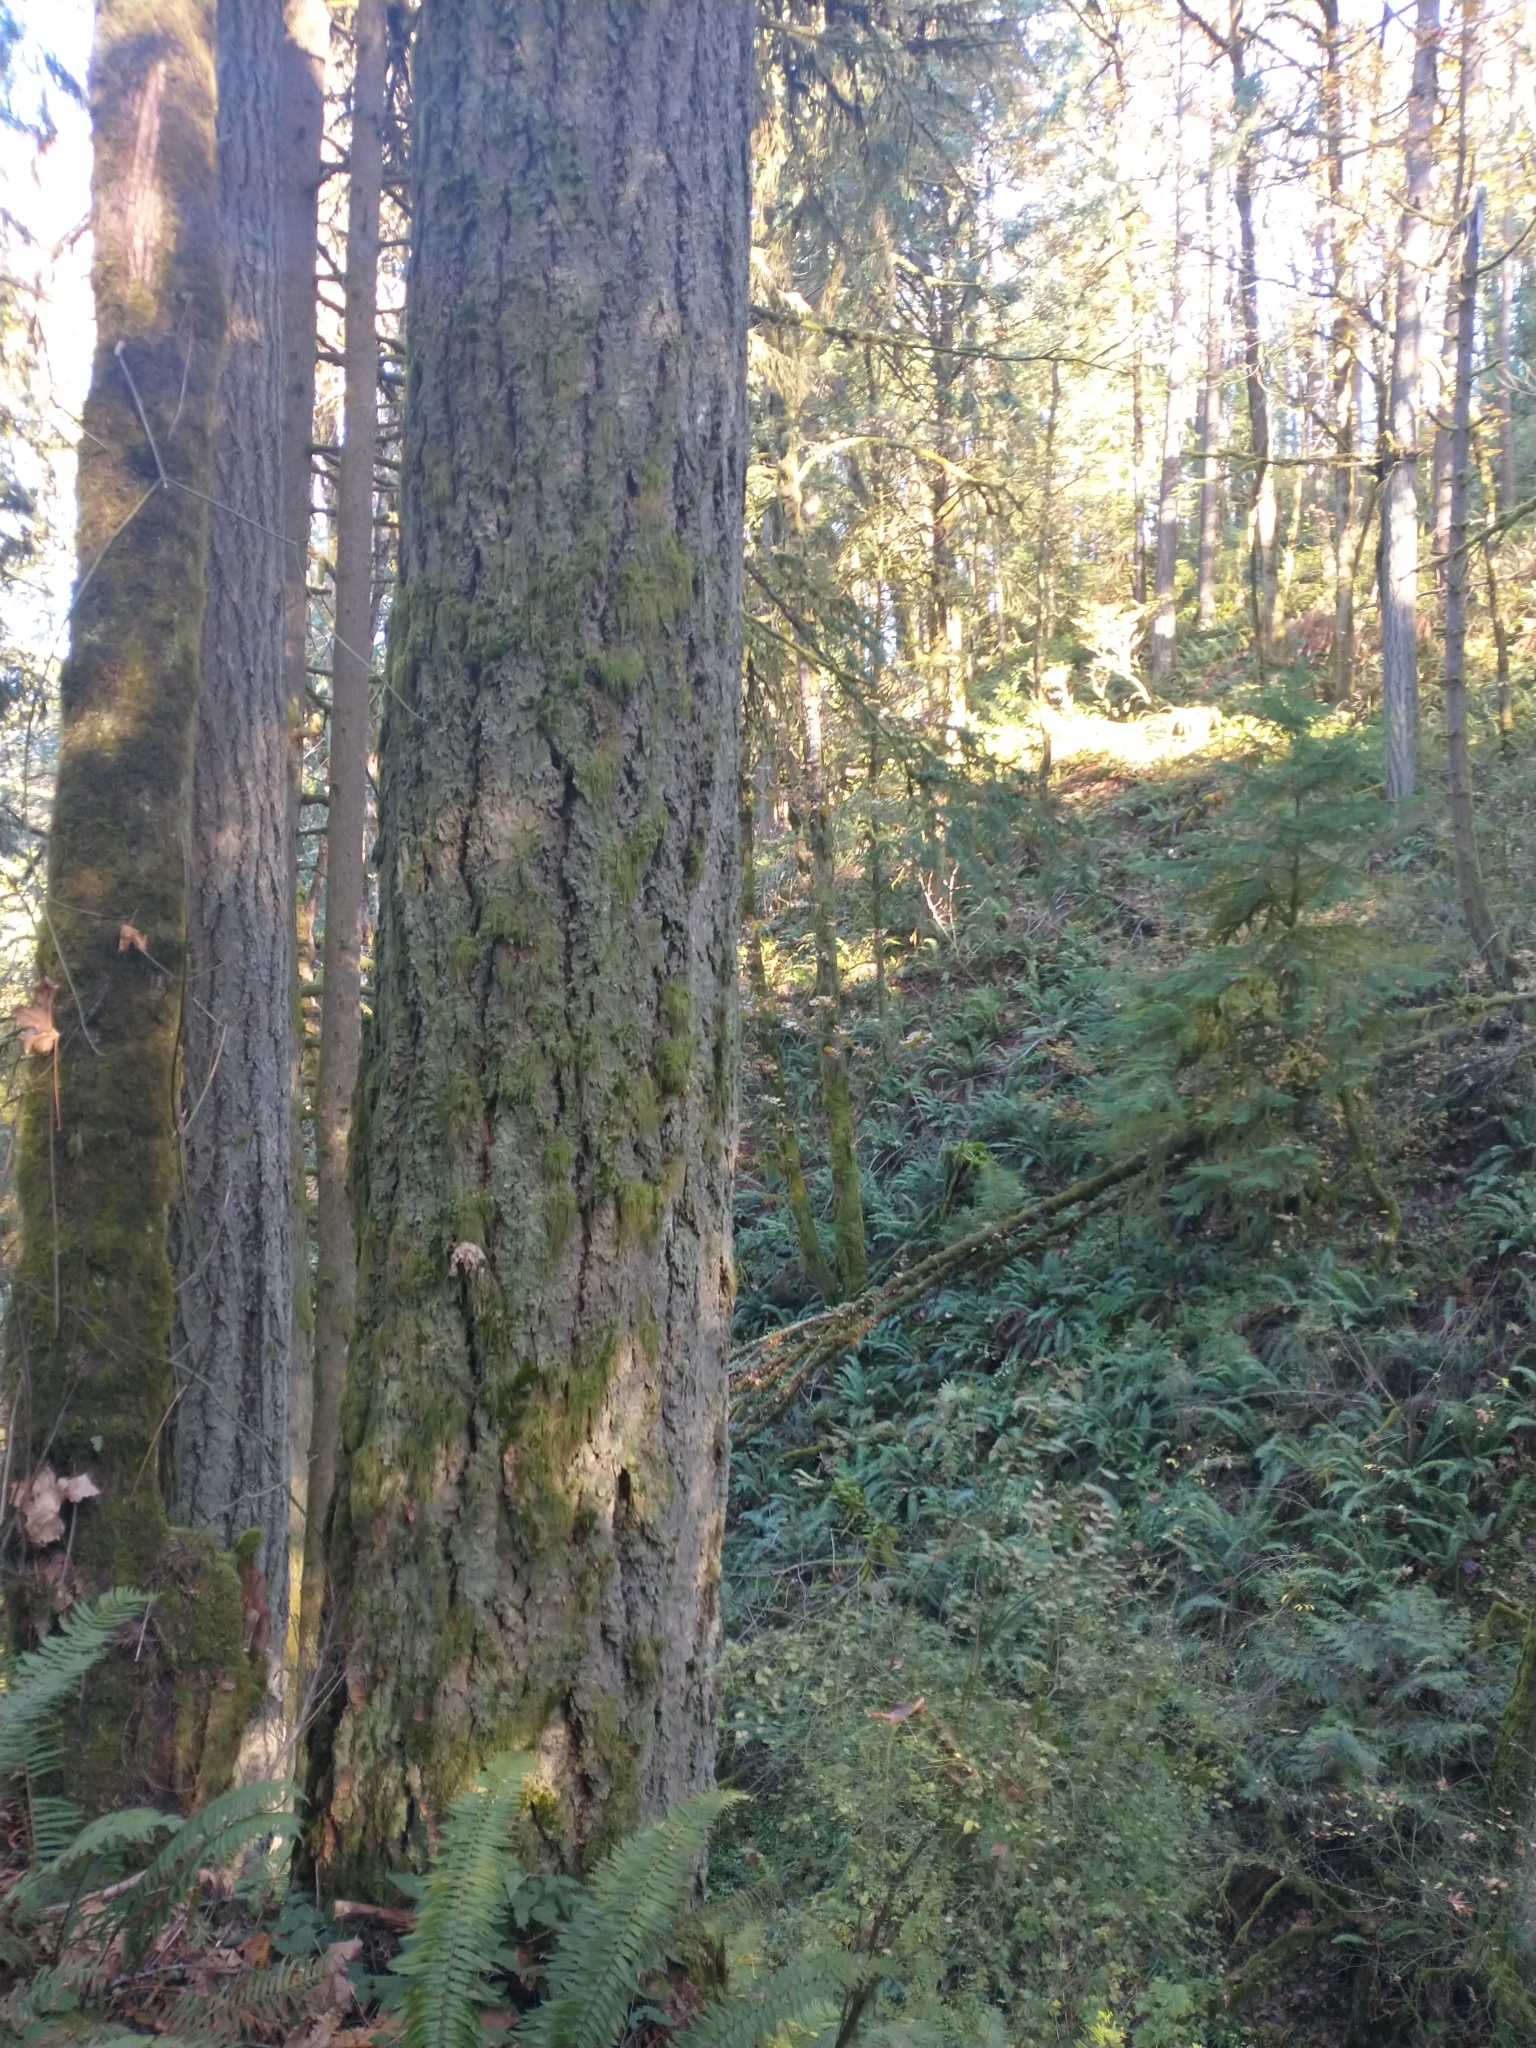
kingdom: Plantae
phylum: Tracheophyta
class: Pinopsida
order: Pinales
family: Pinaceae
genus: Pseudotsuga
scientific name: Pseudotsuga menziesii
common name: Douglas fir
